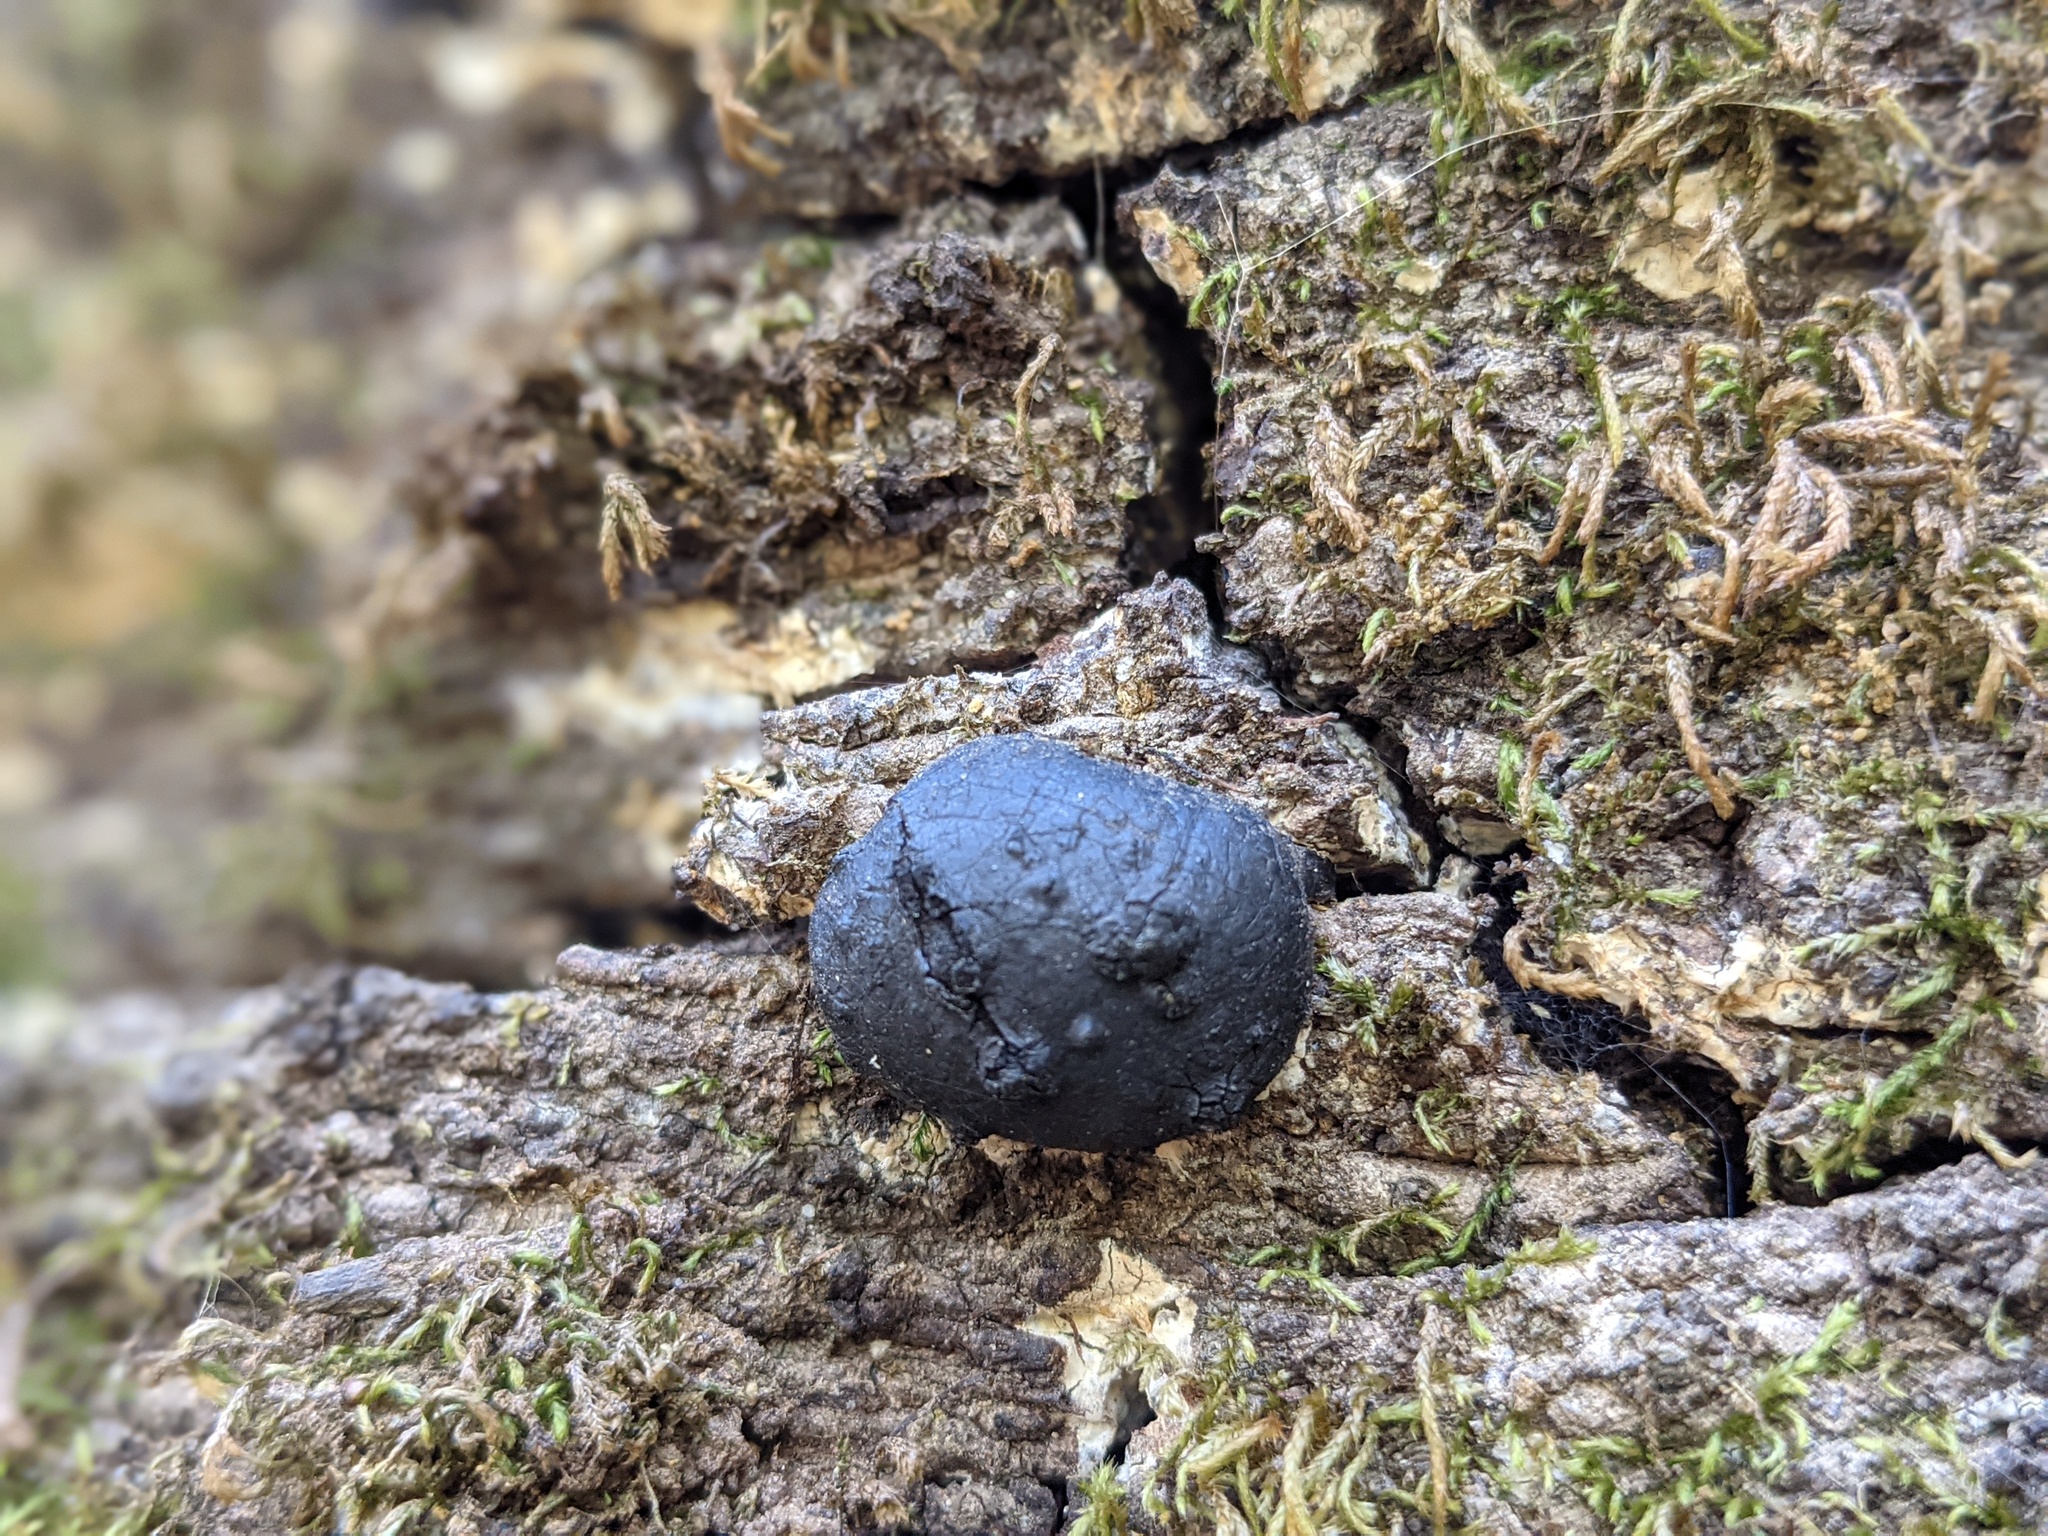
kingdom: Fungi
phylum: Ascomycota
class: Sordariomycetes
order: Xylariales
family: Hypoxylaceae
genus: Annulohypoxylon
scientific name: Annulohypoxylon thouarsianum
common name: Cramp balls
